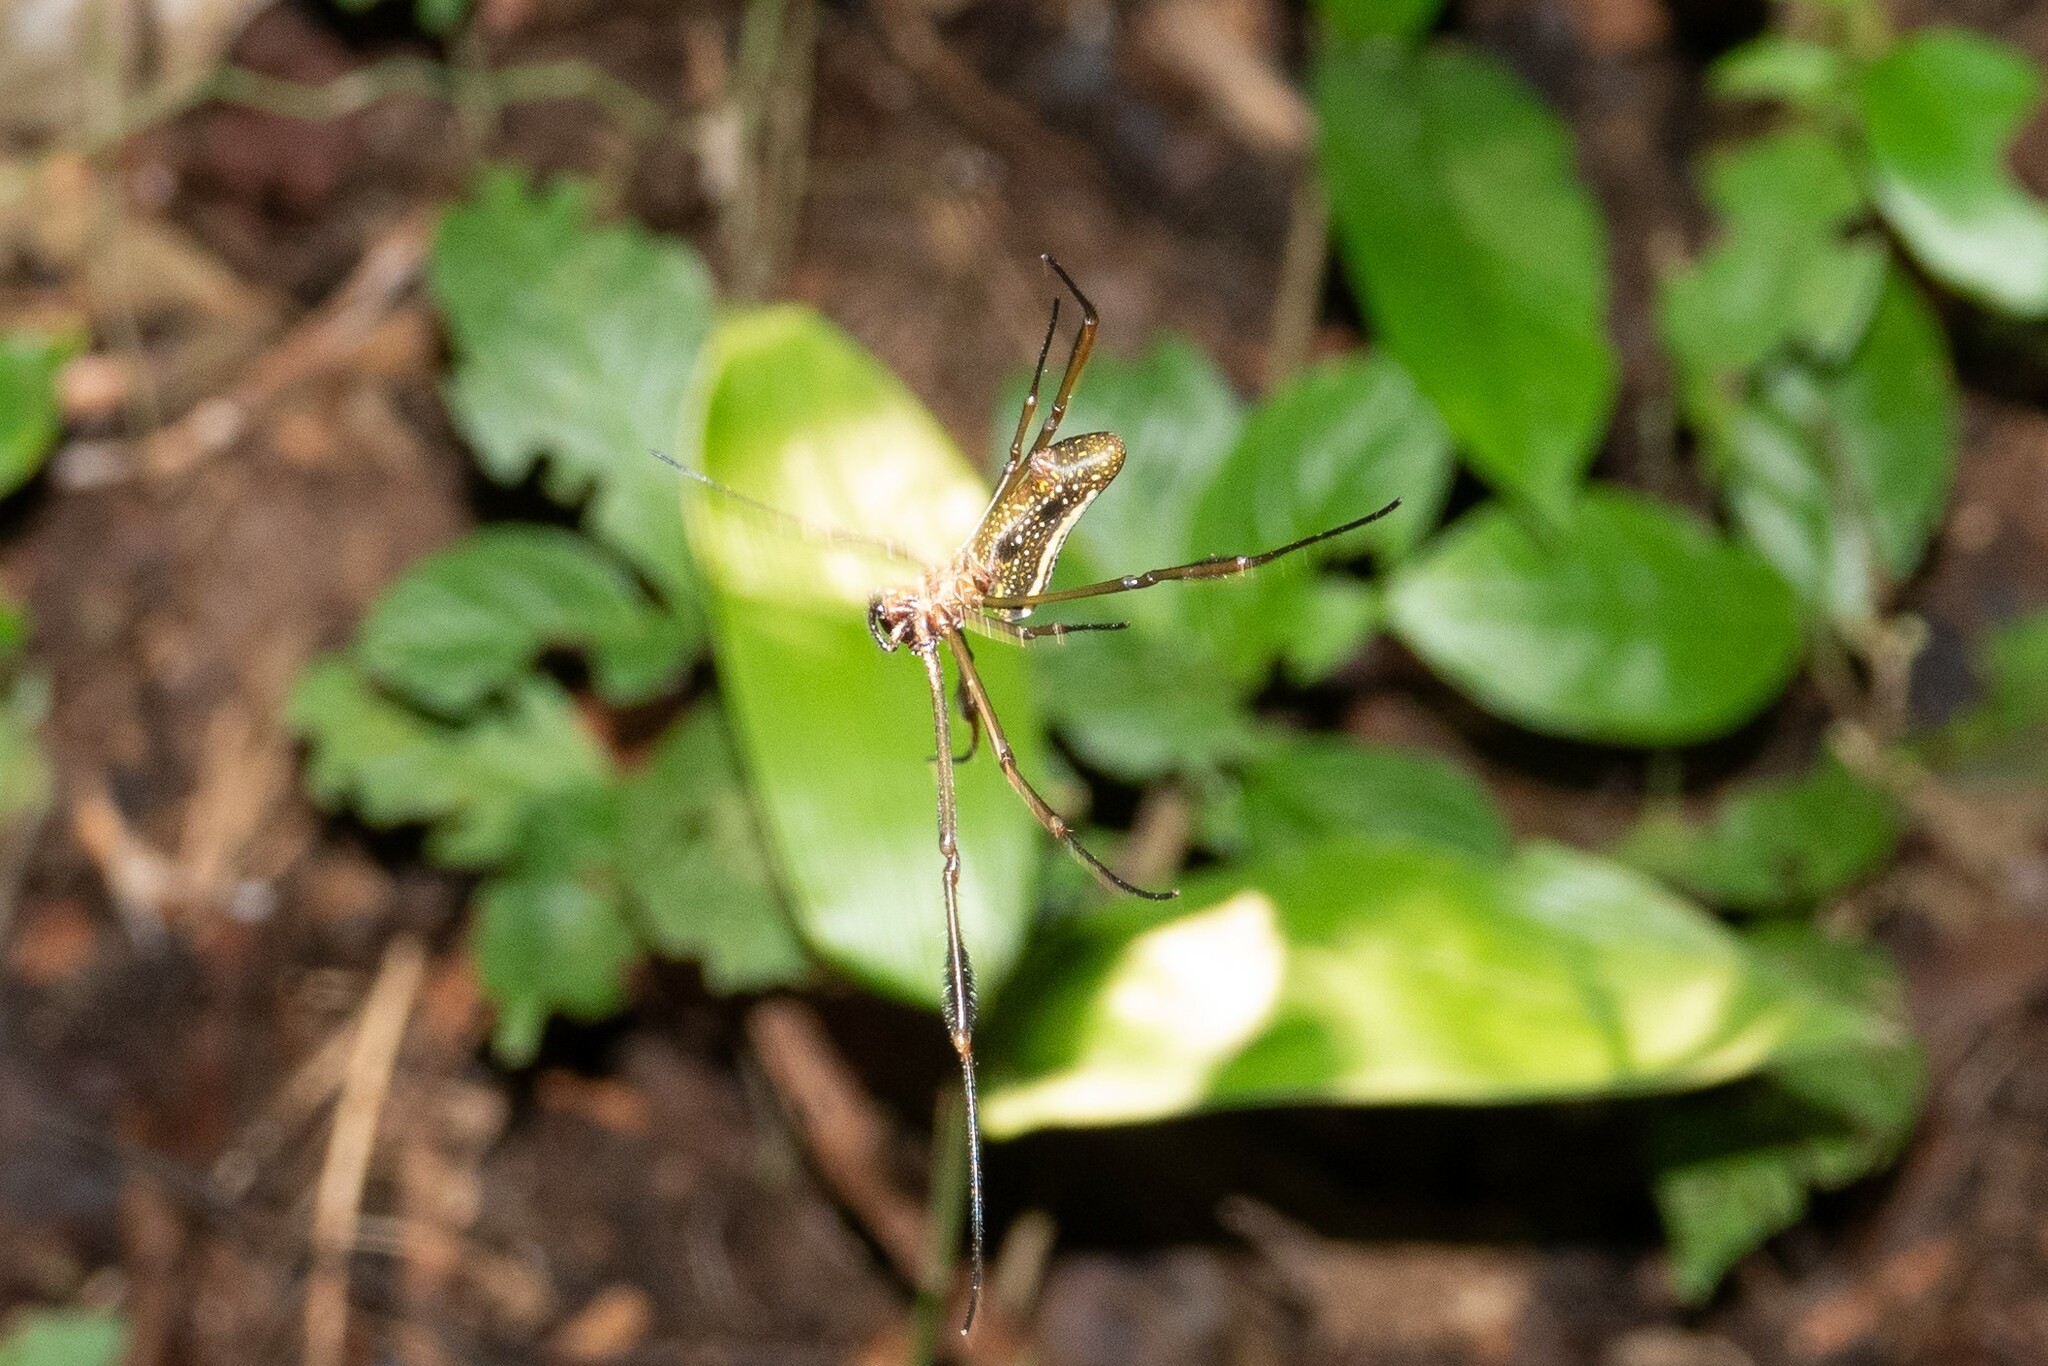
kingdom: Animalia
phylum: Arthropoda
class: Arachnida
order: Araneae
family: Araneidae
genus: Trichonephila
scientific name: Trichonephila clavipes
